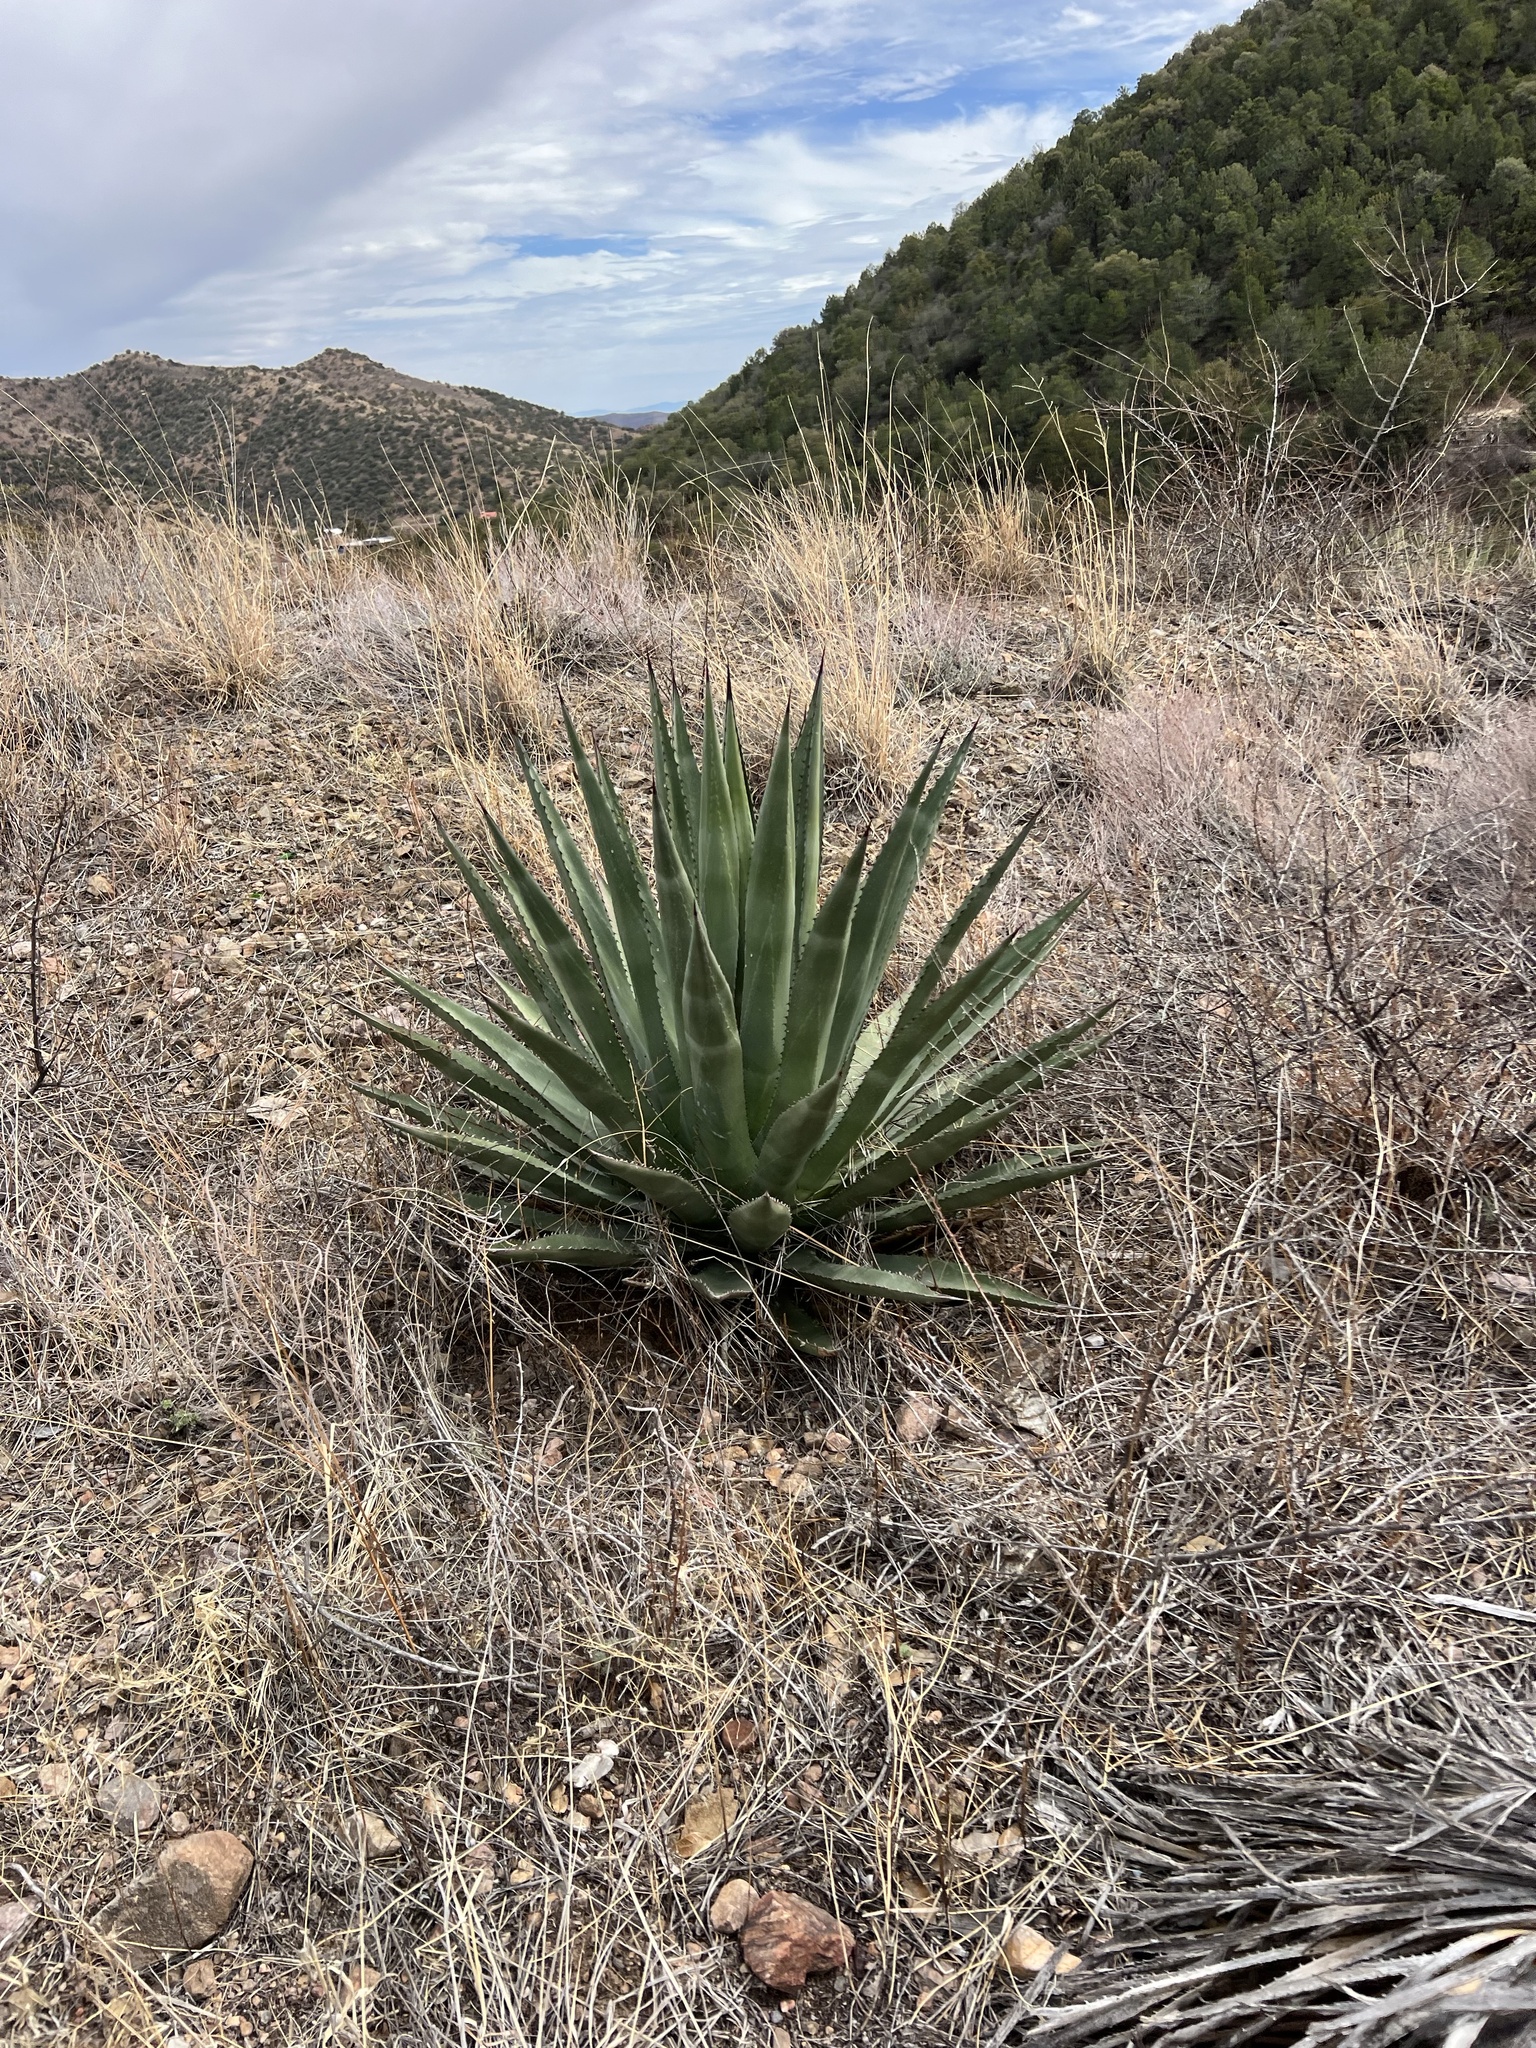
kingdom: Plantae
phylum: Tracheophyta
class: Liliopsida
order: Asparagales
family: Asparagaceae
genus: Agave
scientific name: Agave palmeri
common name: Palmer agave
